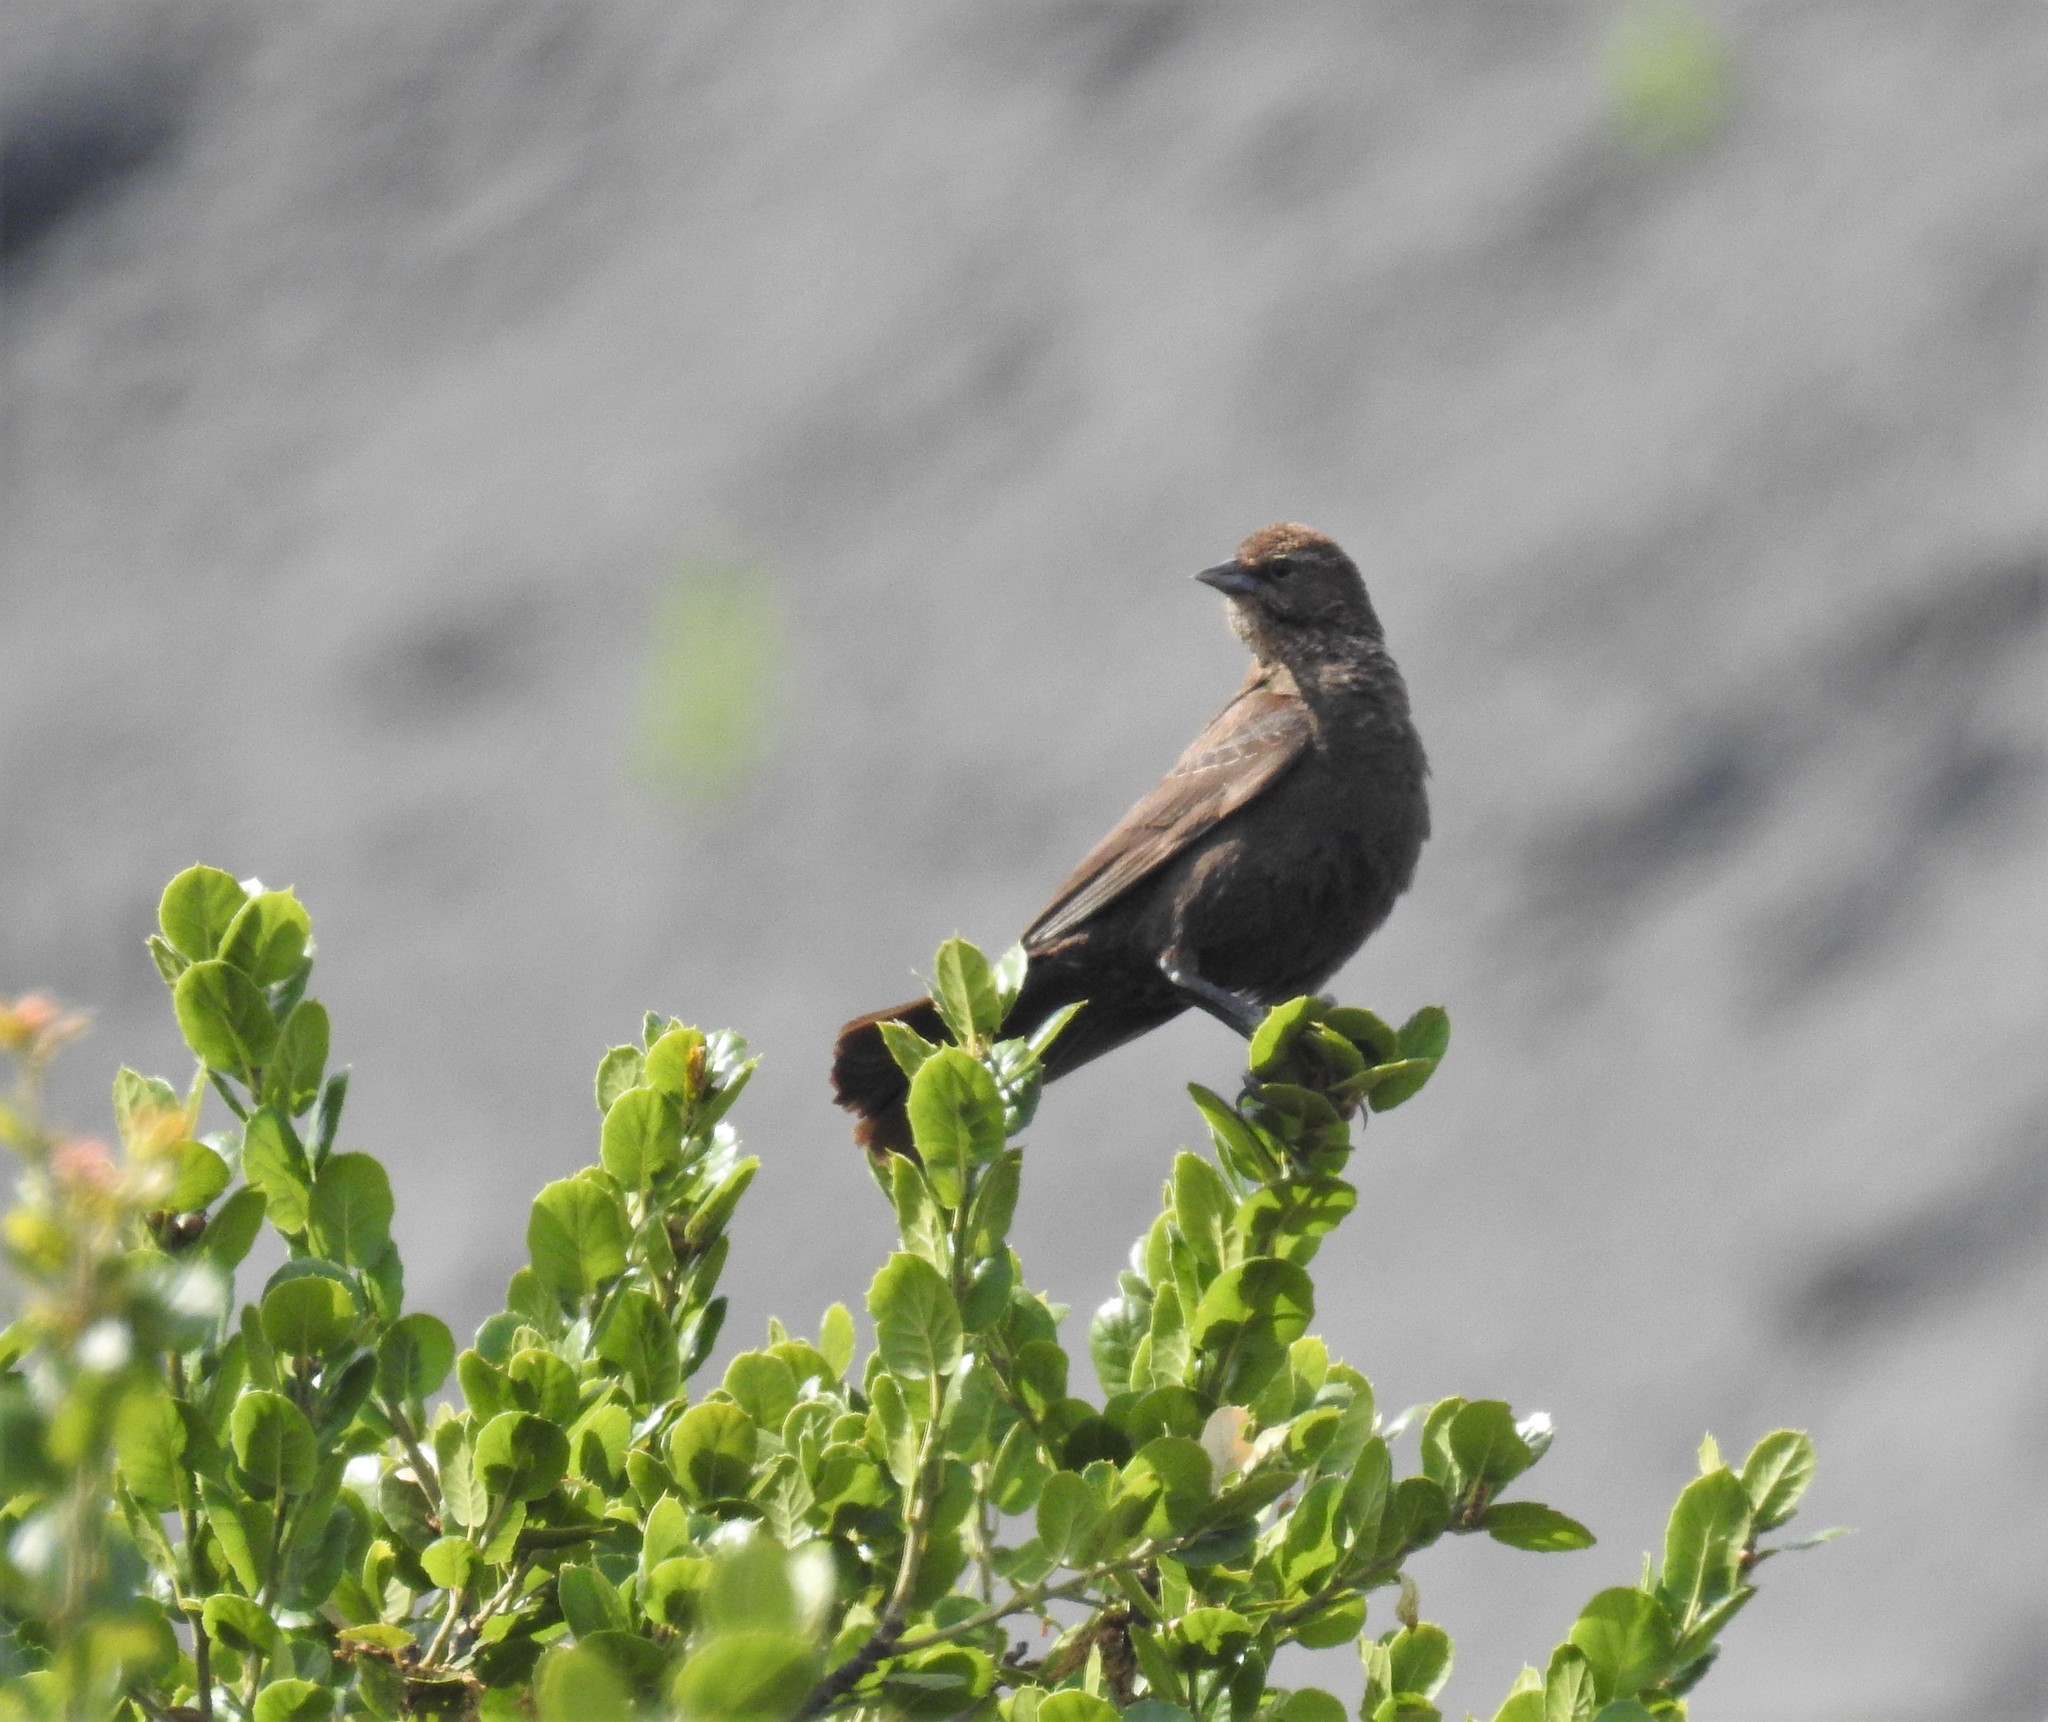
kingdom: Animalia
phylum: Chordata
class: Aves
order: Passeriformes
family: Icteridae
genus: Agelaius
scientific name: Agelaius phoeniceus
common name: Red-winged blackbird
